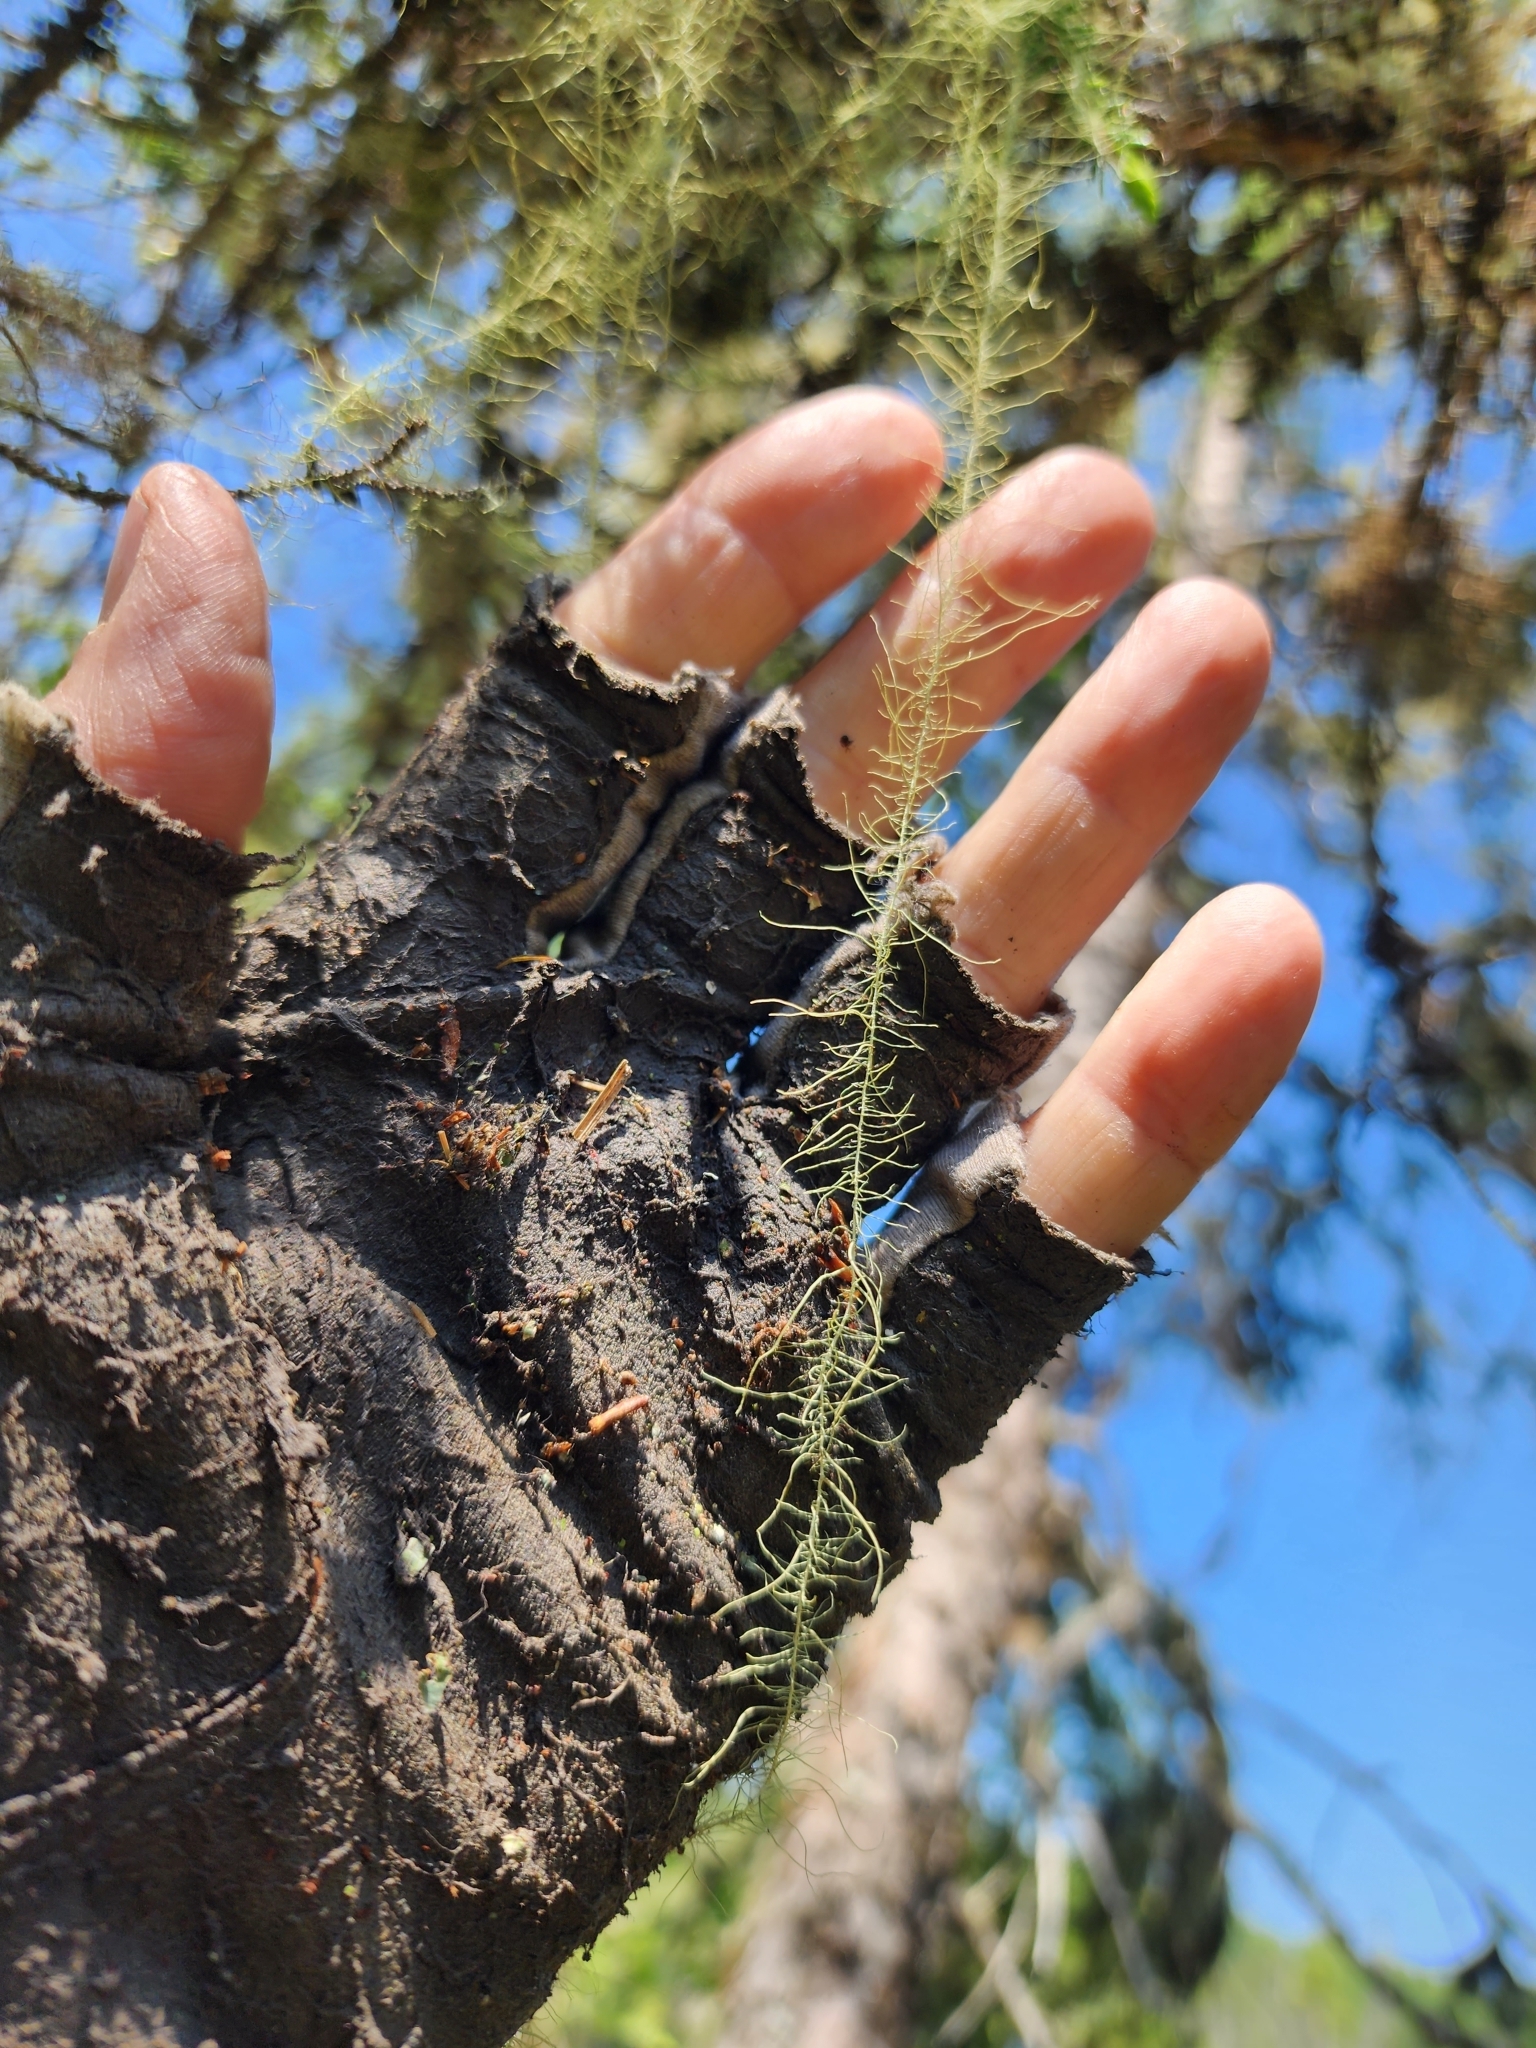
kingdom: Fungi
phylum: Ascomycota
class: Lecanoromycetes
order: Lecanorales
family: Parmeliaceae
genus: Dolichousnea
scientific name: Dolichousnea longissima
